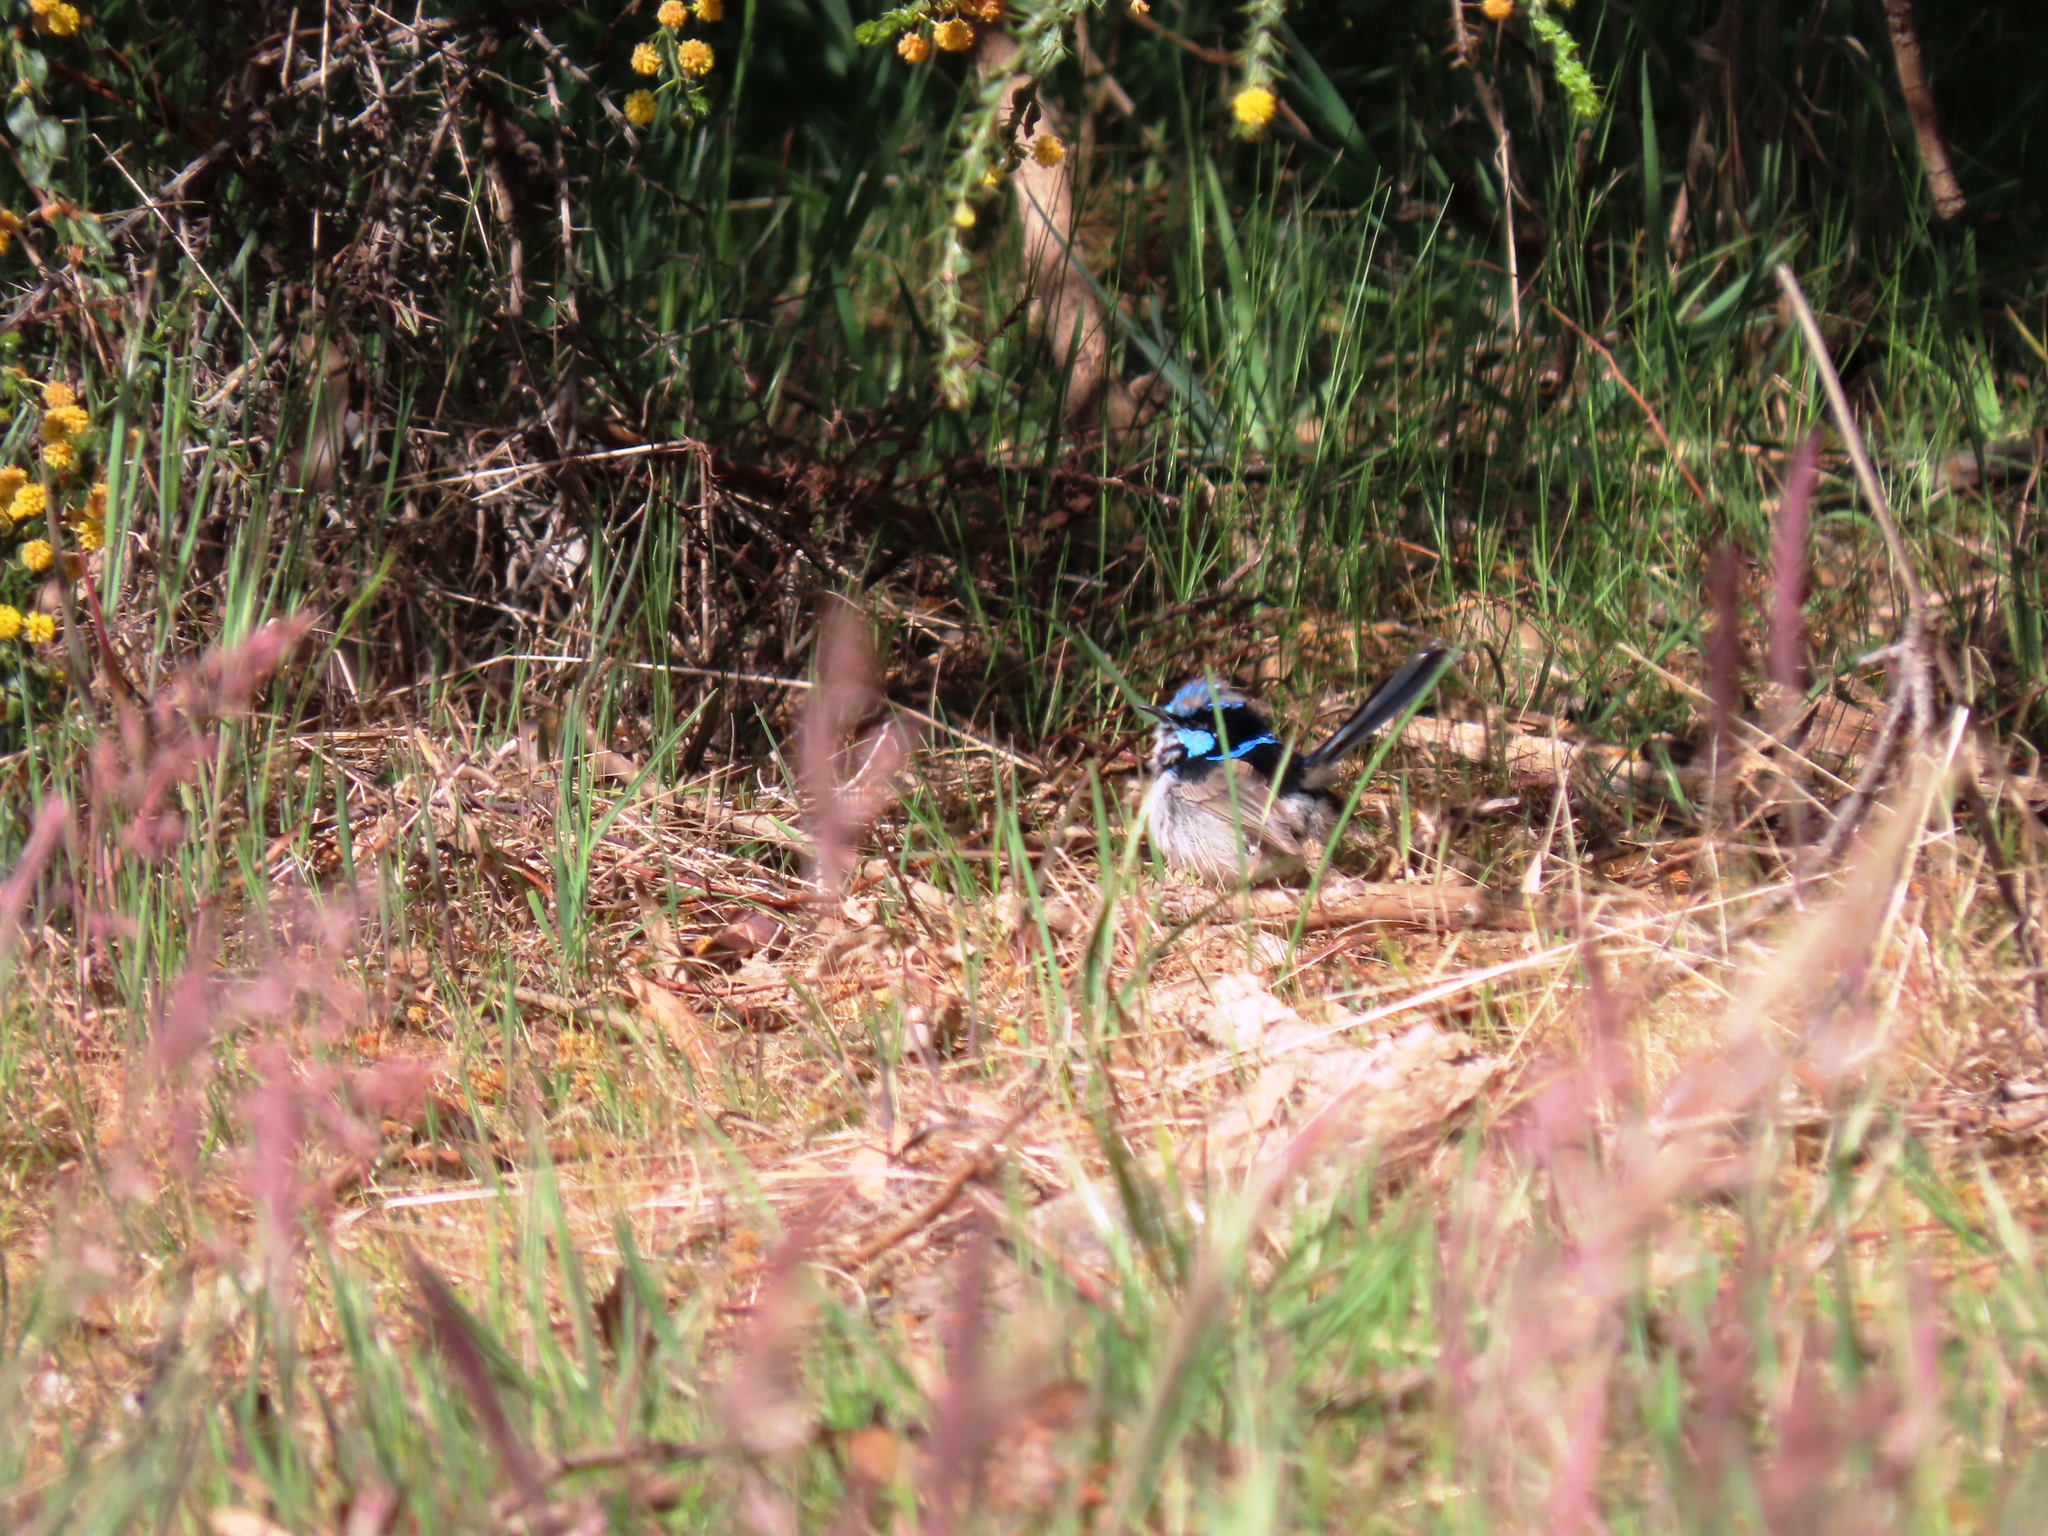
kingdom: Animalia
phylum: Chordata
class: Aves
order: Passeriformes
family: Maluridae
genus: Malurus
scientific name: Malurus cyaneus
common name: Superb fairywren
